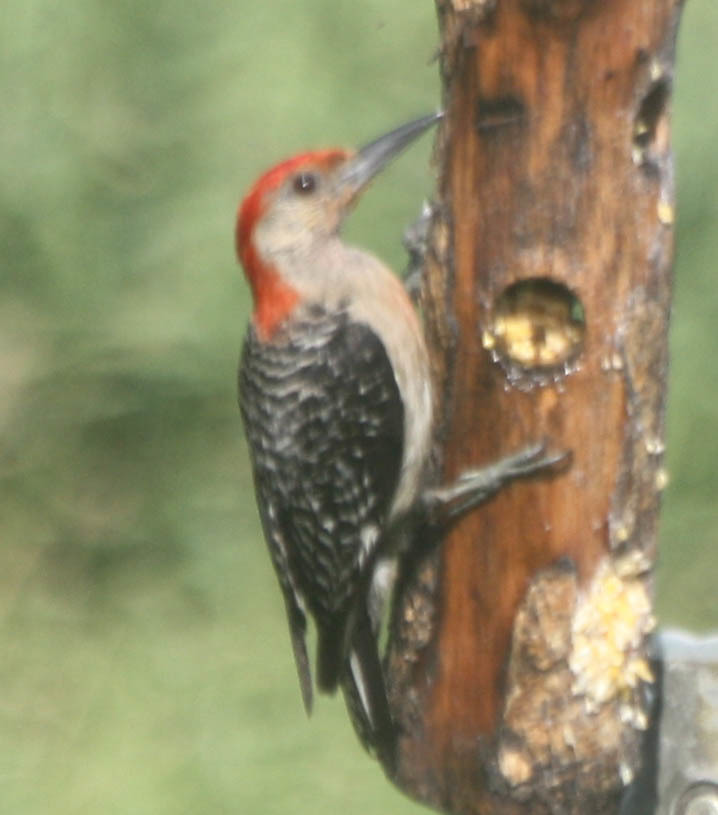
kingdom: Animalia
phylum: Chordata
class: Aves
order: Piciformes
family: Picidae
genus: Melanerpes
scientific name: Melanerpes carolinus
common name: Red-bellied woodpecker
